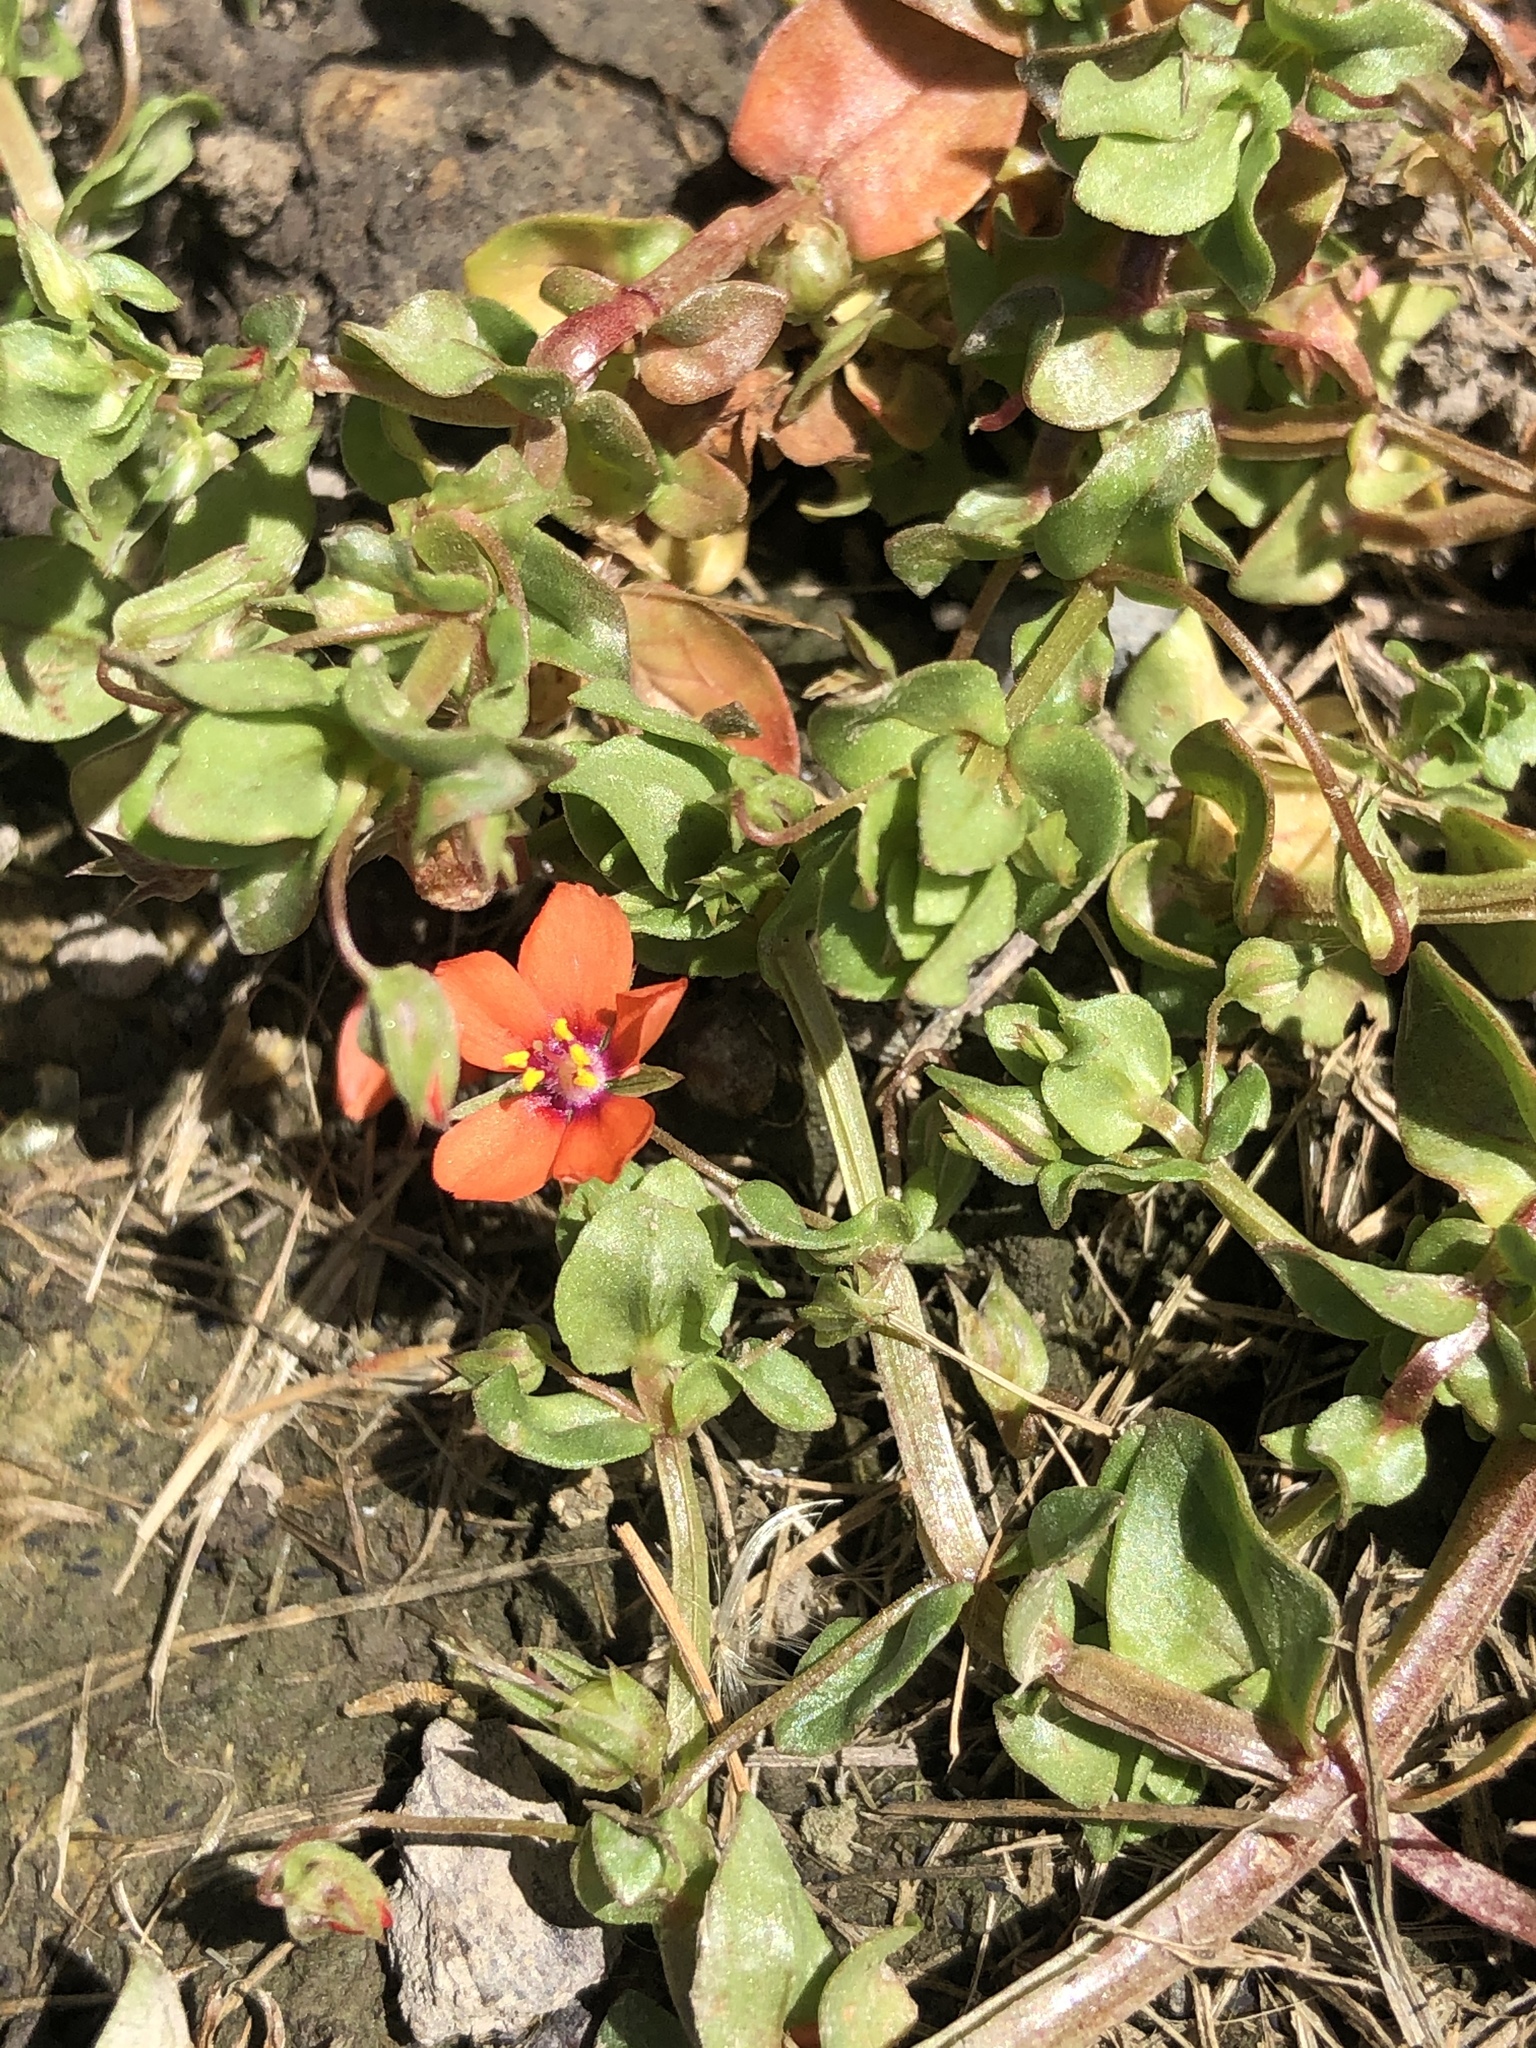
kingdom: Plantae
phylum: Tracheophyta
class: Magnoliopsida
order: Ericales
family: Primulaceae
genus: Lysimachia
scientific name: Lysimachia arvensis
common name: Scarlet pimpernel
